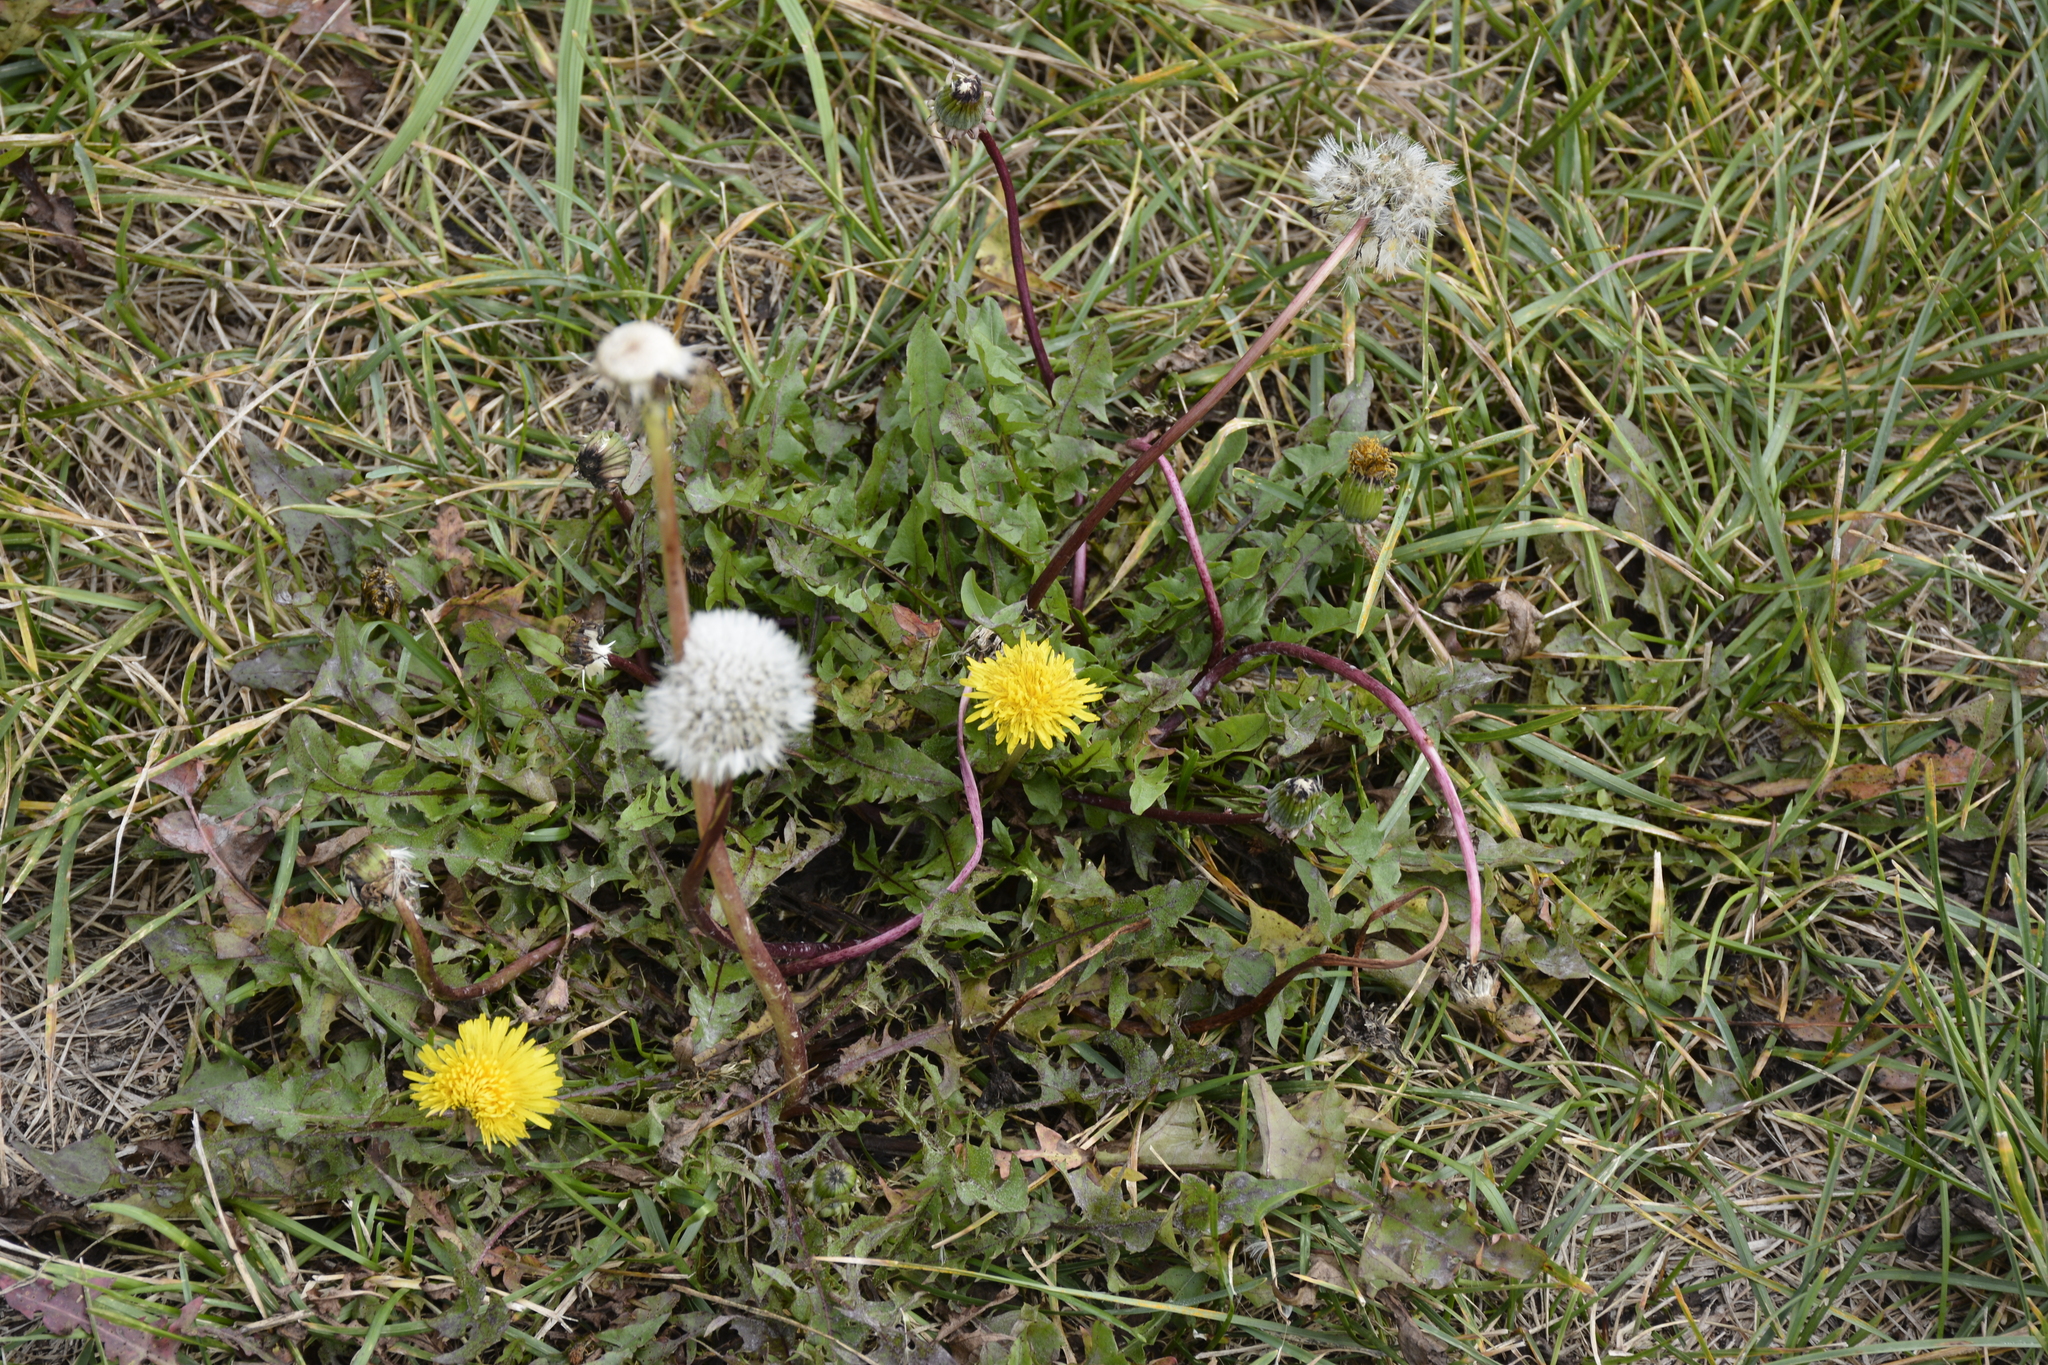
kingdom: Plantae
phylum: Tracheophyta
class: Magnoliopsida
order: Asterales
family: Asteraceae
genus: Taraxacum
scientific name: Taraxacum officinale
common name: Common dandelion
